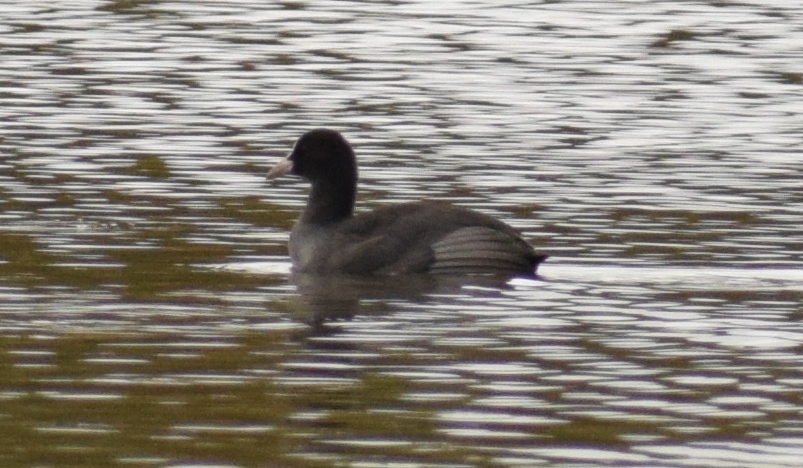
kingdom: Animalia
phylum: Chordata
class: Aves
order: Gruiformes
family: Rallidae
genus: Fulica
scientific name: Fulica atra
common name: Eurasian coot
